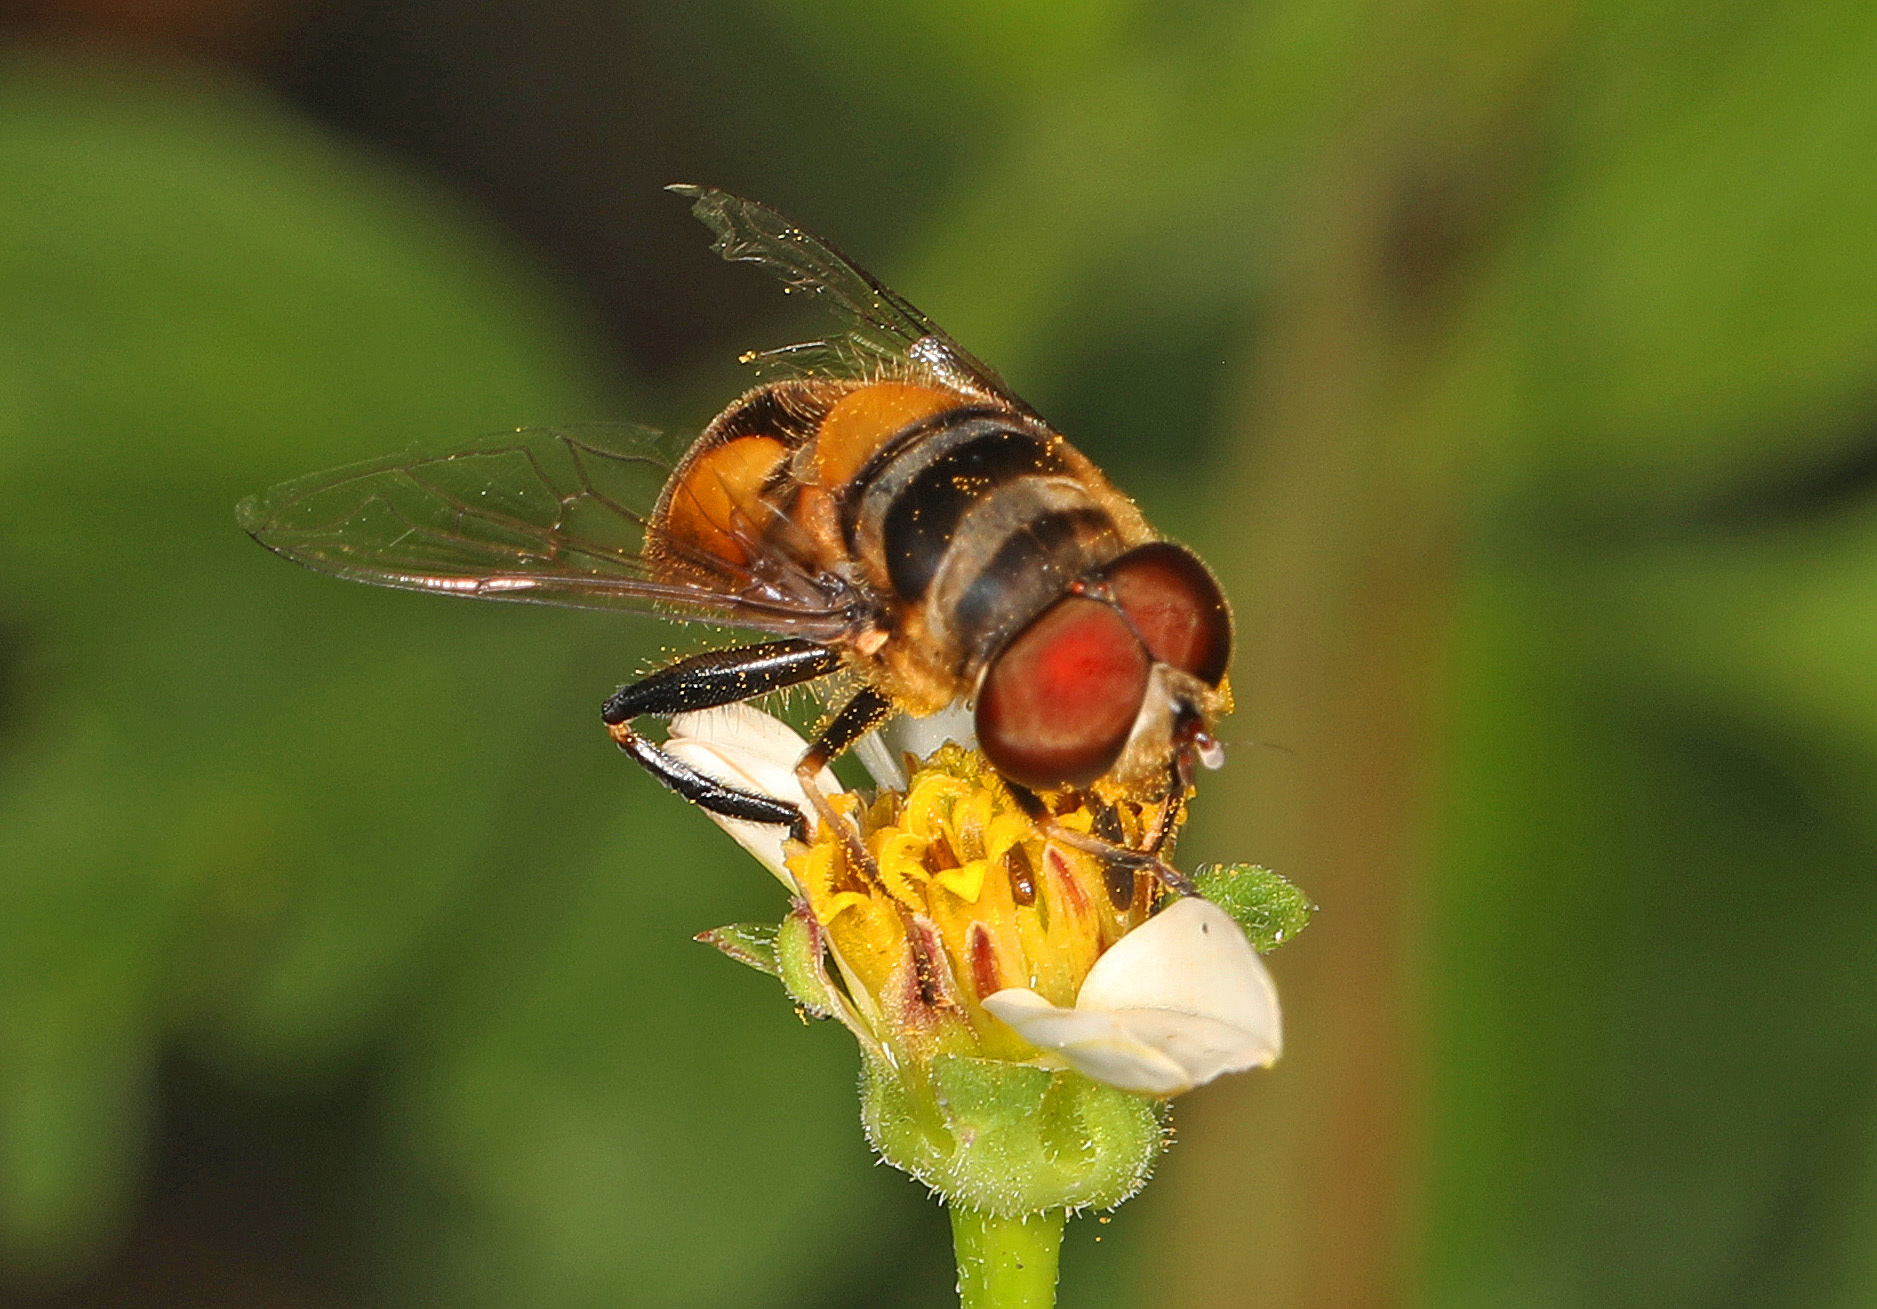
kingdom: Animalia
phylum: Arthropoda
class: Insecta
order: Diptera
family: Syrphidae
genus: Palpada
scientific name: Palpada agrorum
